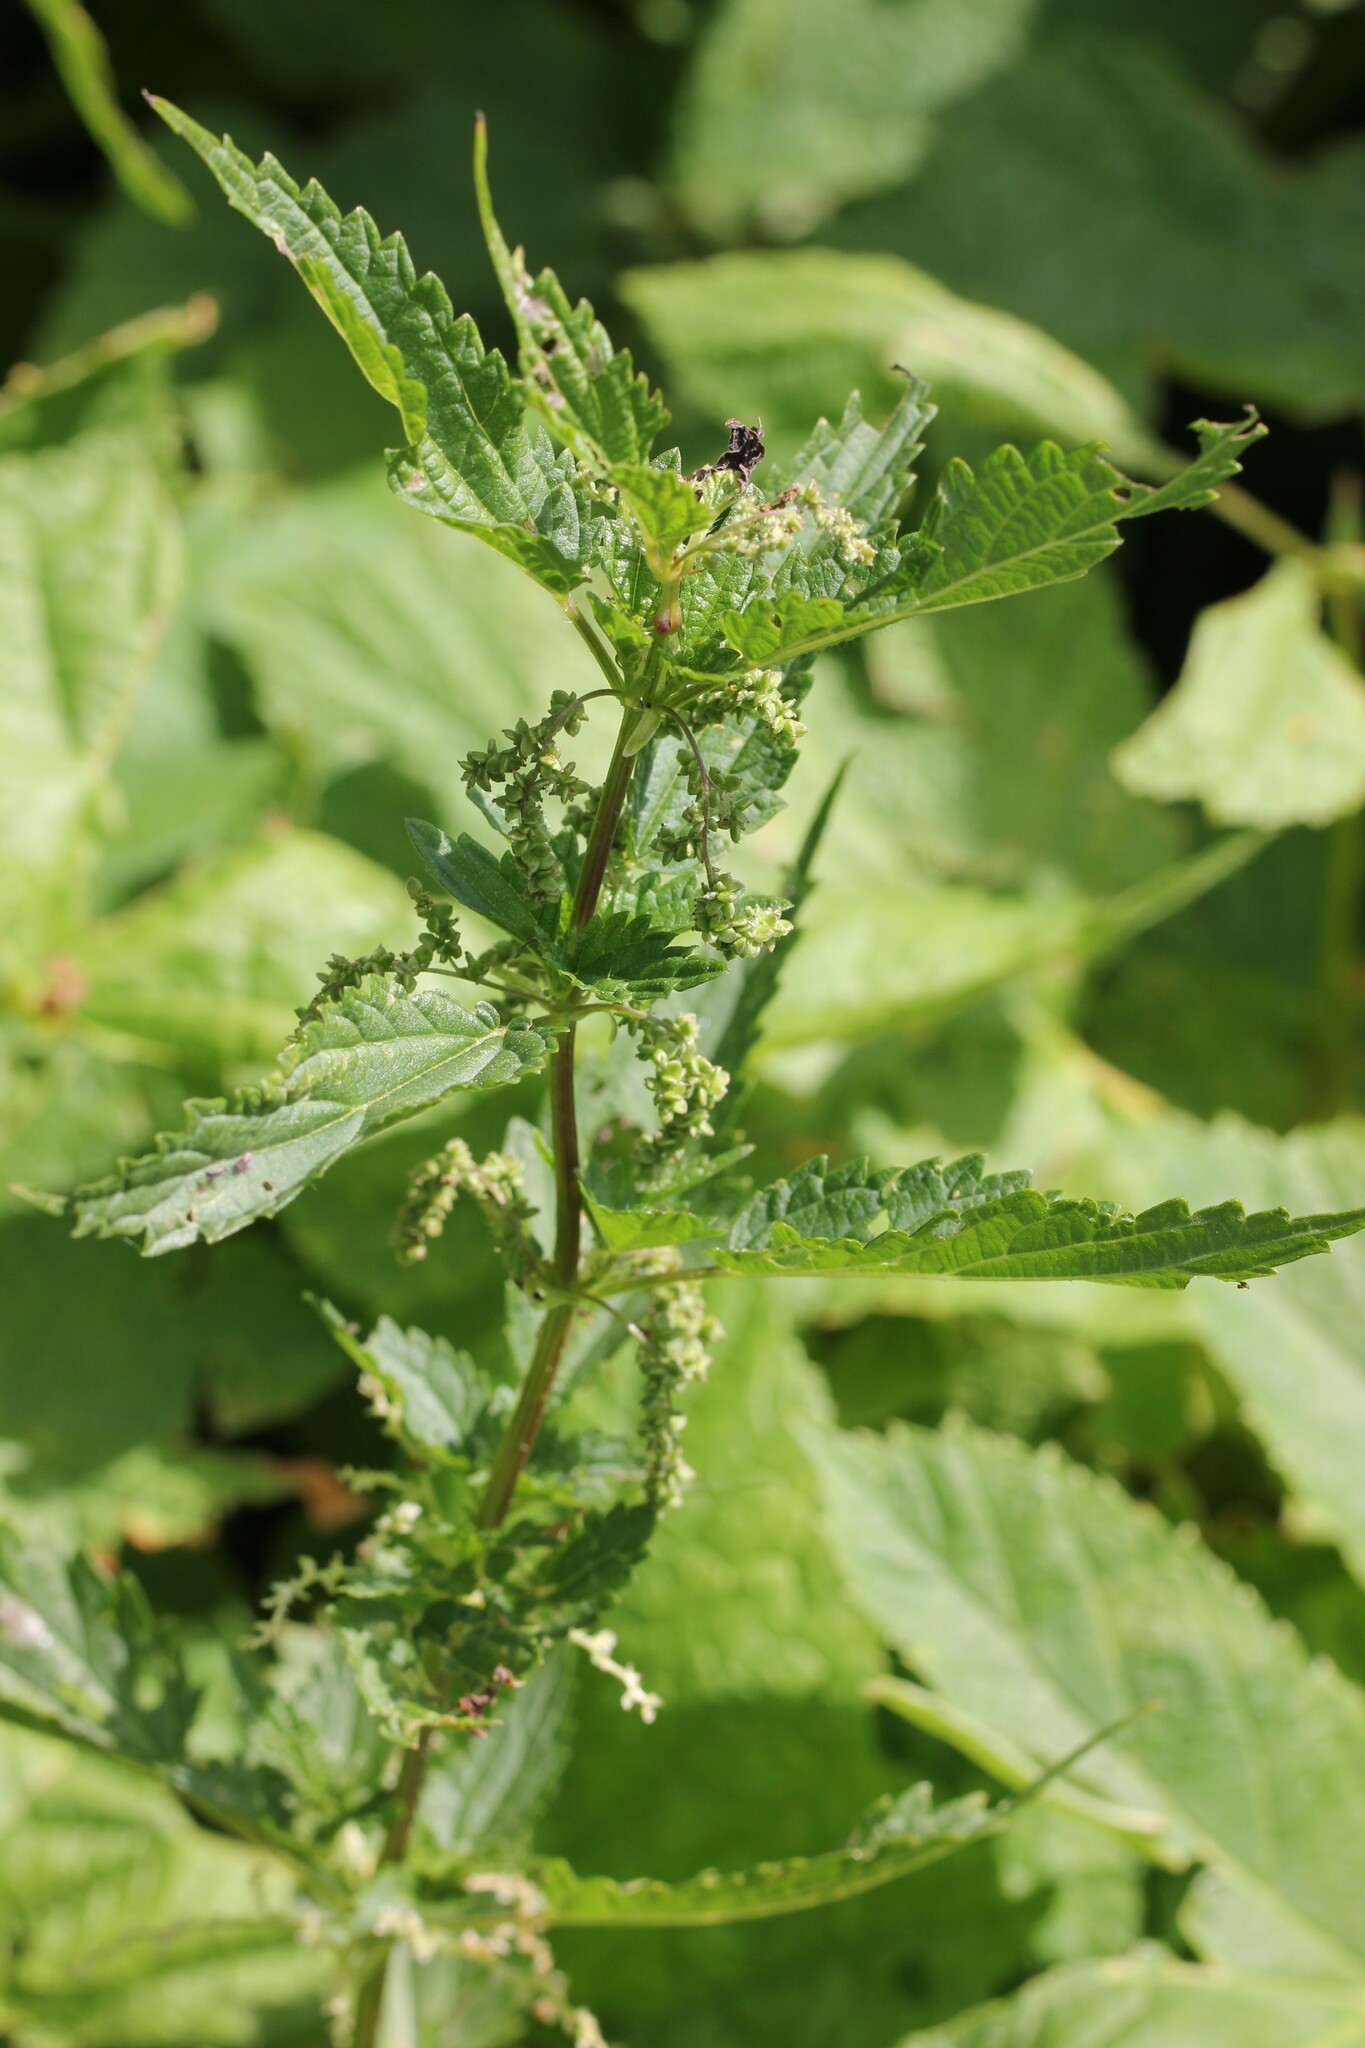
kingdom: Plantae
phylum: Tracheophyta
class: Magnoliopsida
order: Rosales
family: Urticaceae
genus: Urtica
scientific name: Urtica gracilis
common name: Slender stinging nettle
